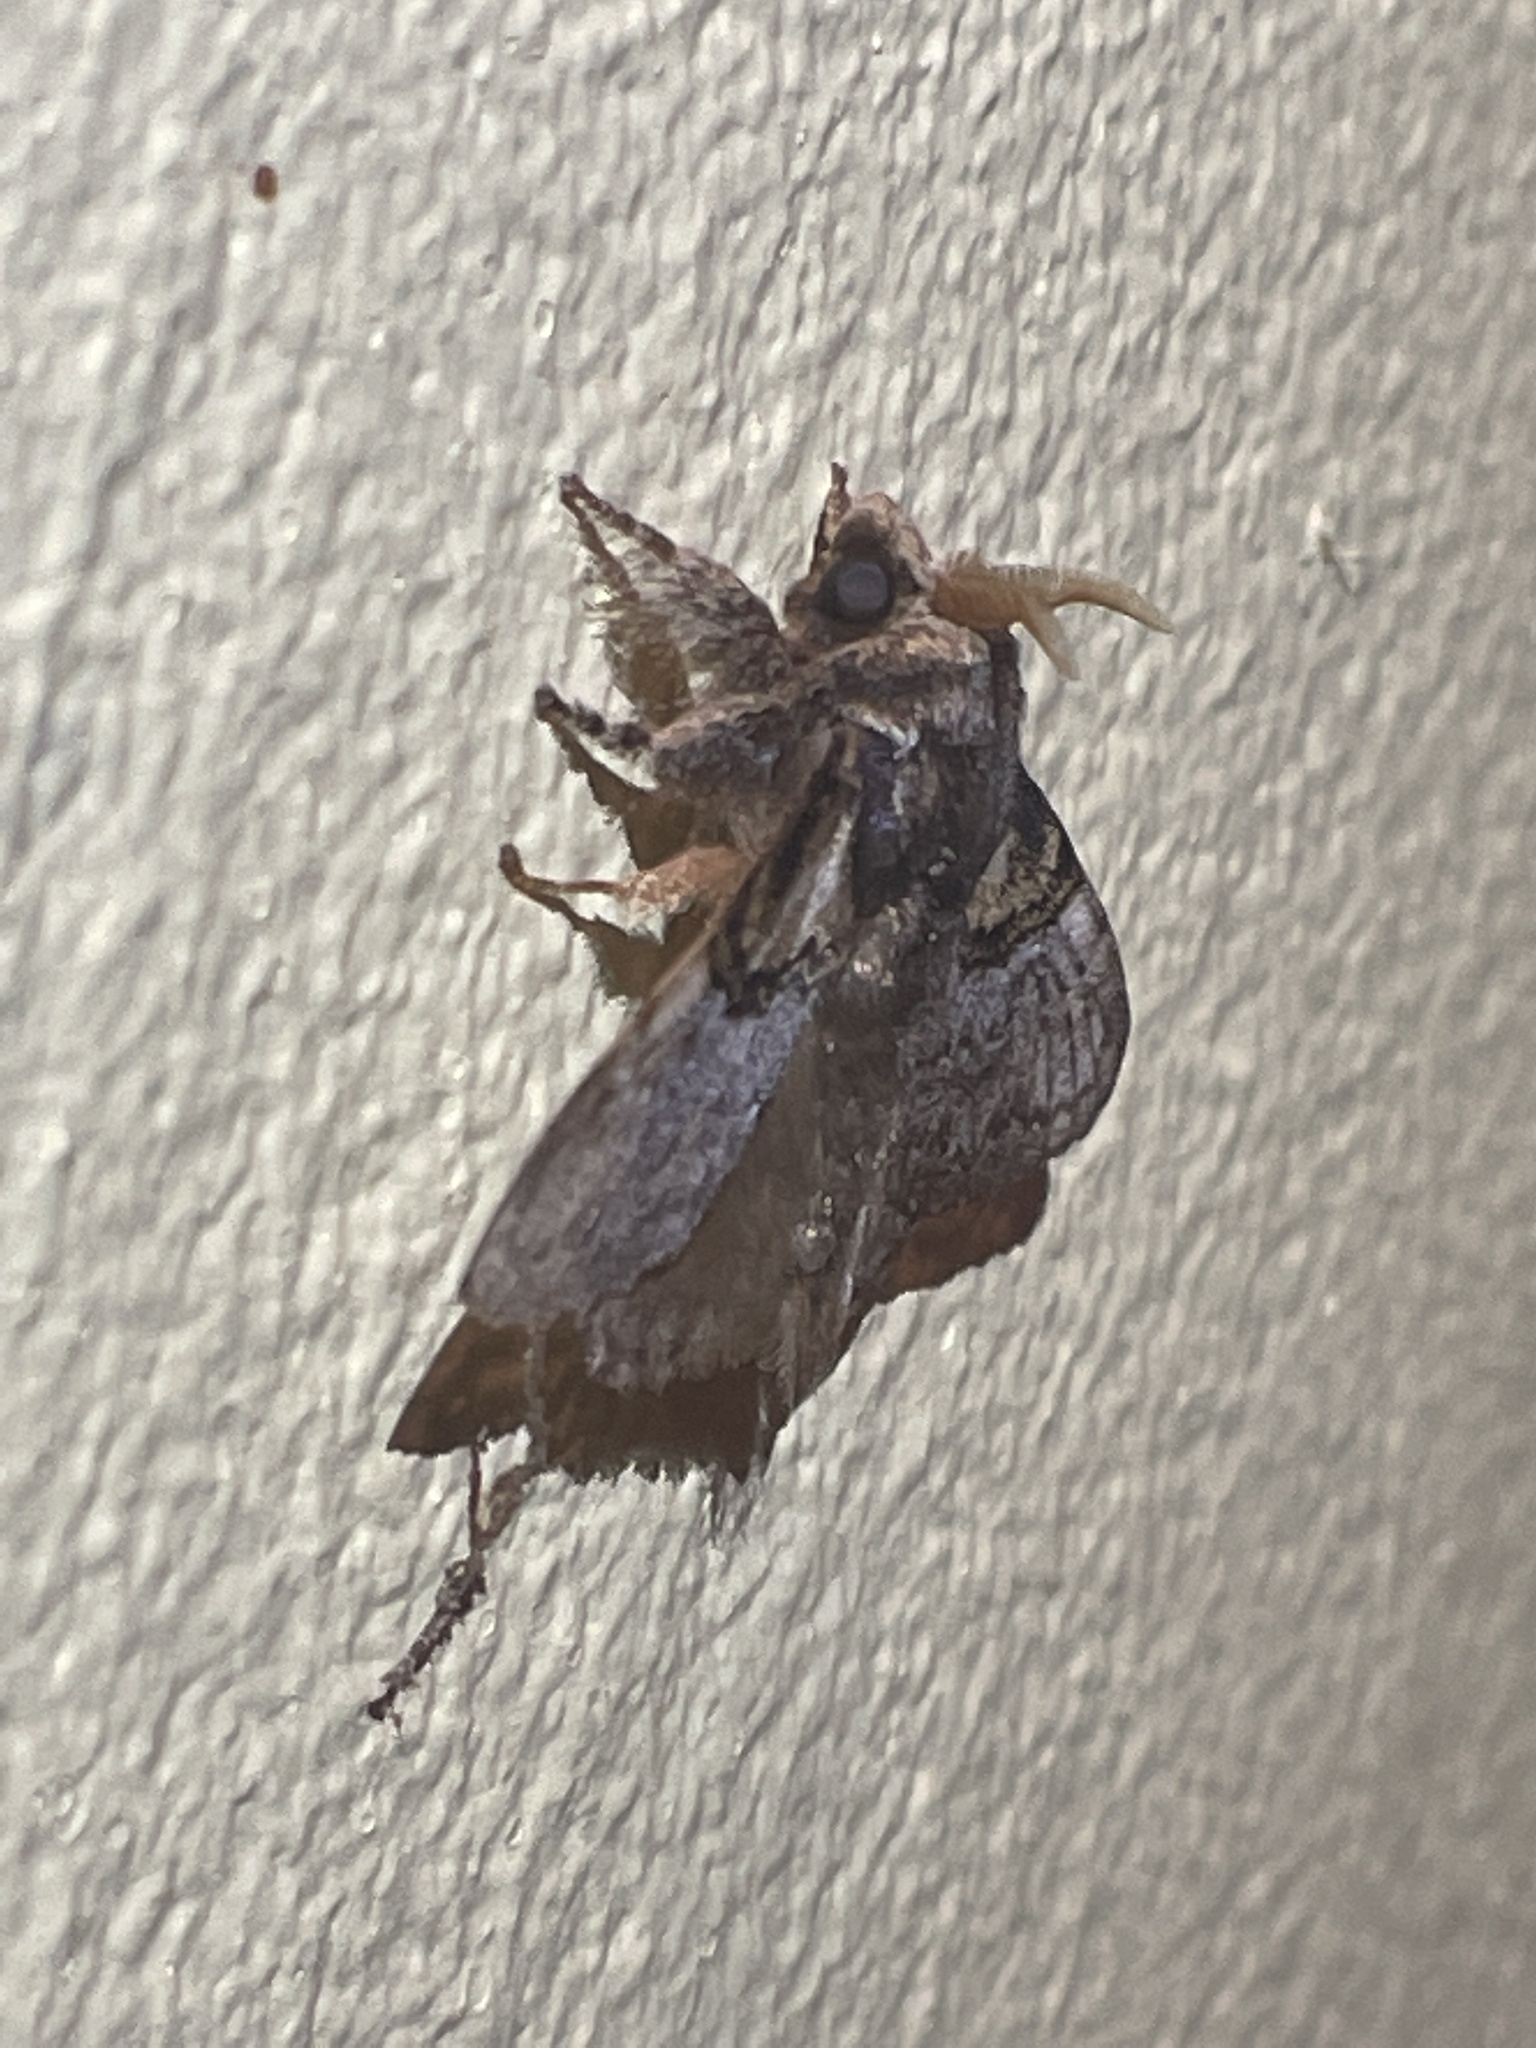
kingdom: Animalia
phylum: Arthropoda
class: Insecta
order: Lepidoptera
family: Lasiocampidae
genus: Euglyphis
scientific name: Euglyphis larunda
